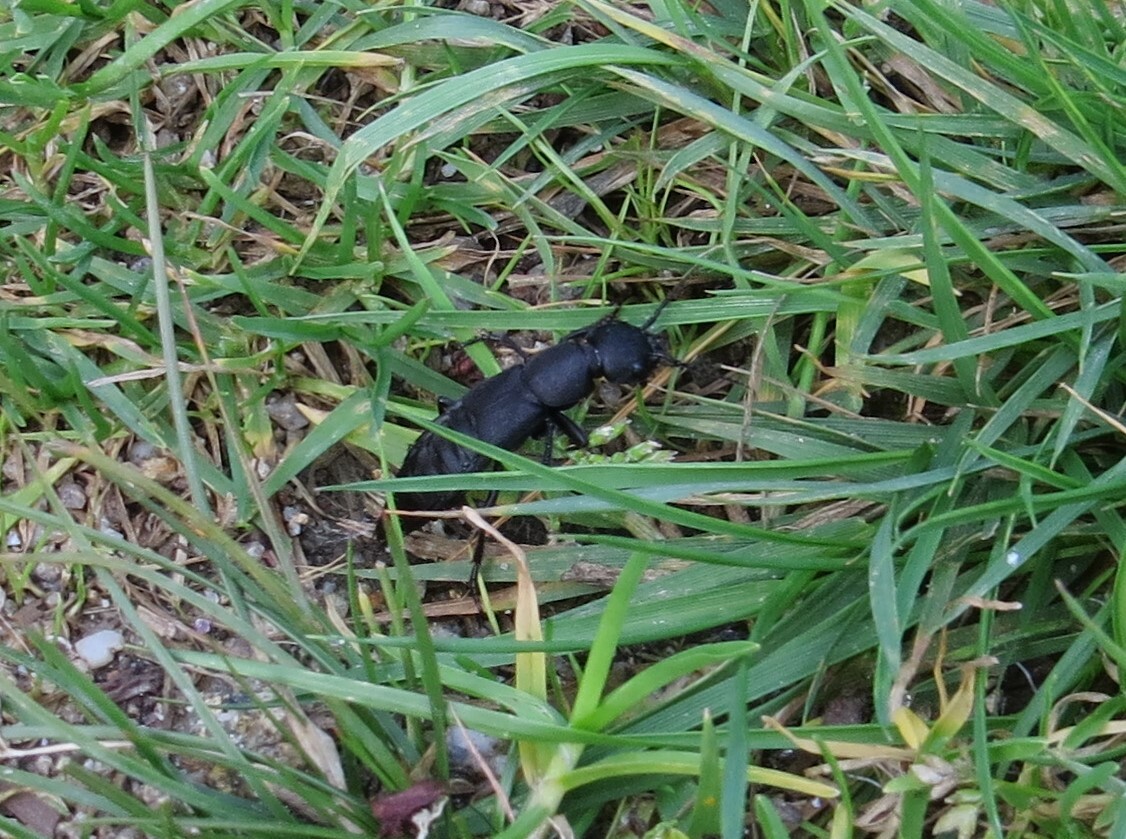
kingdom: Animalia
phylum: Arthropoda
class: Insecta
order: Coleoptera
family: Staphylinidae
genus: Ocypus
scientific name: Ocypus olens
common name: Devil's coach-horse
